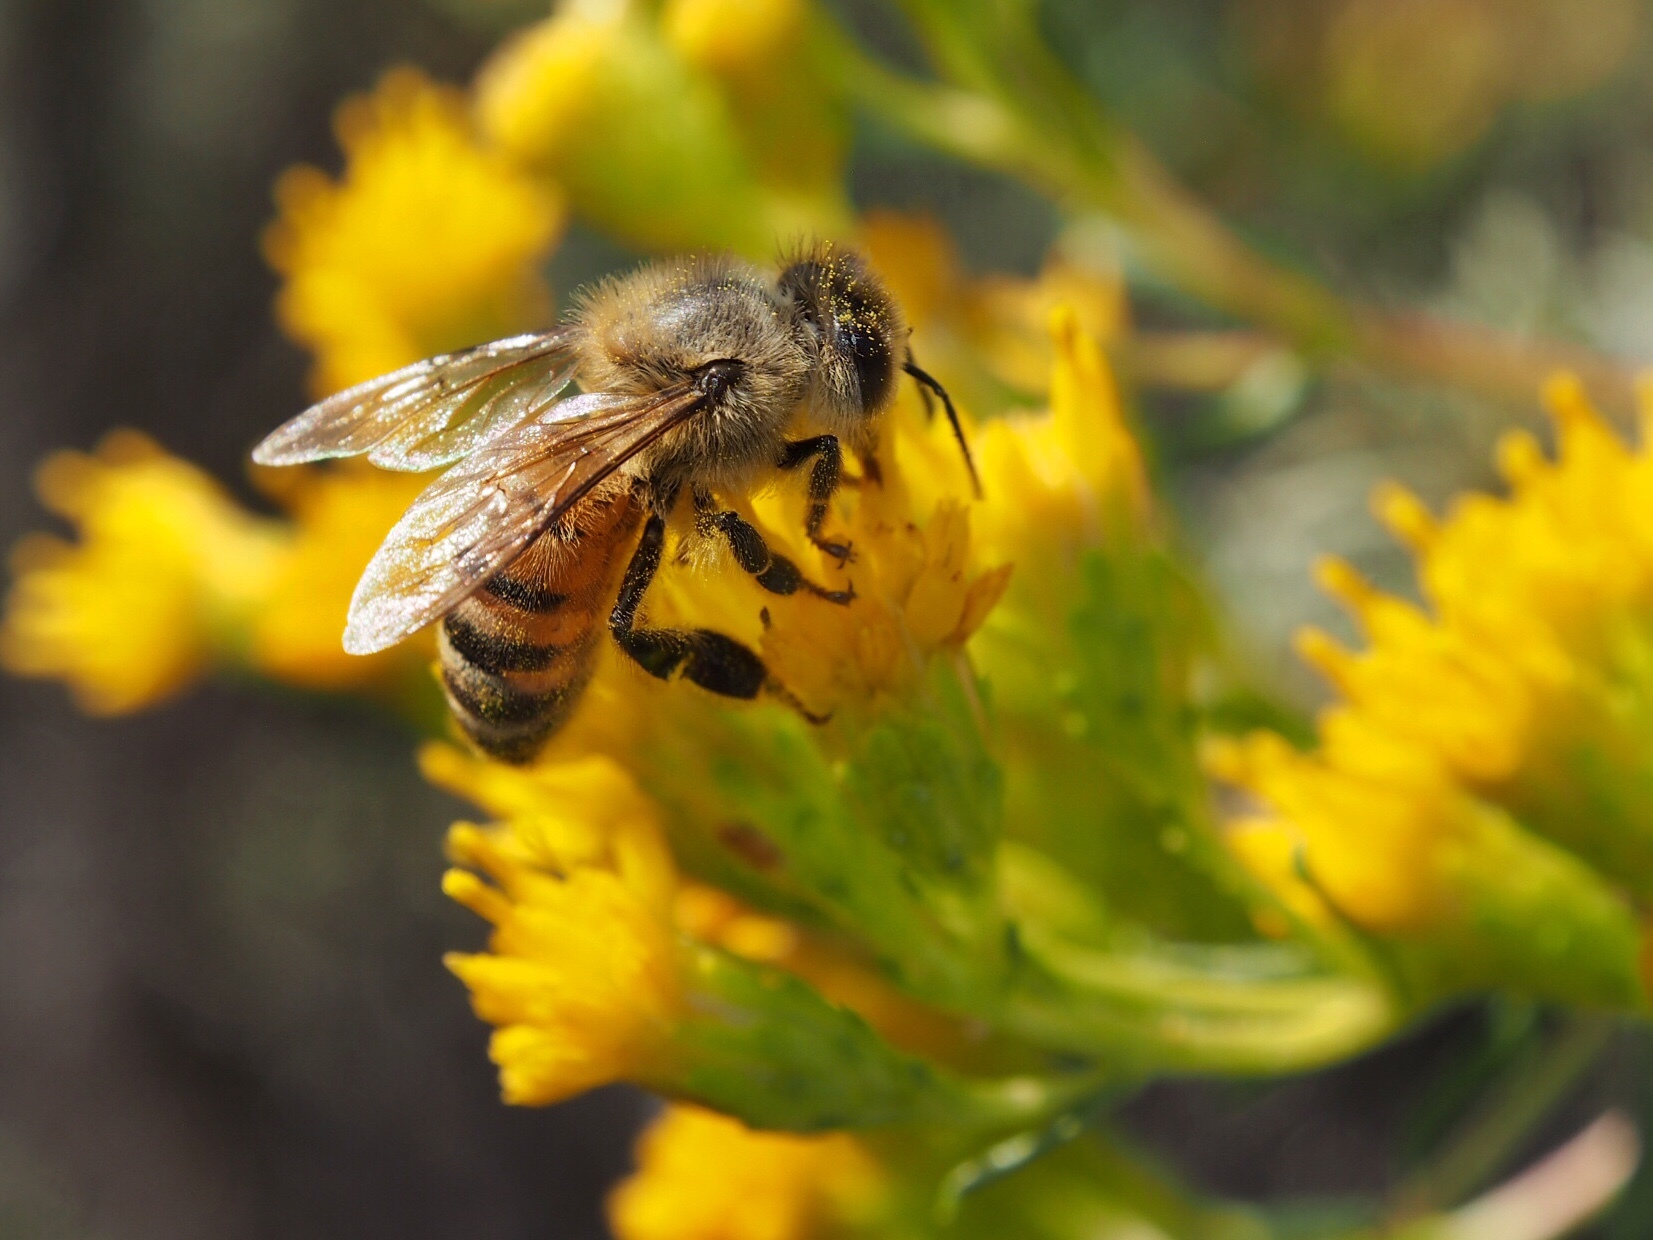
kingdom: Animalia
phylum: Arthropoda
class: Insecta
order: Hymenoptera
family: Apidae
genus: Apis
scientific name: Apis mellifera
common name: Honey bee
